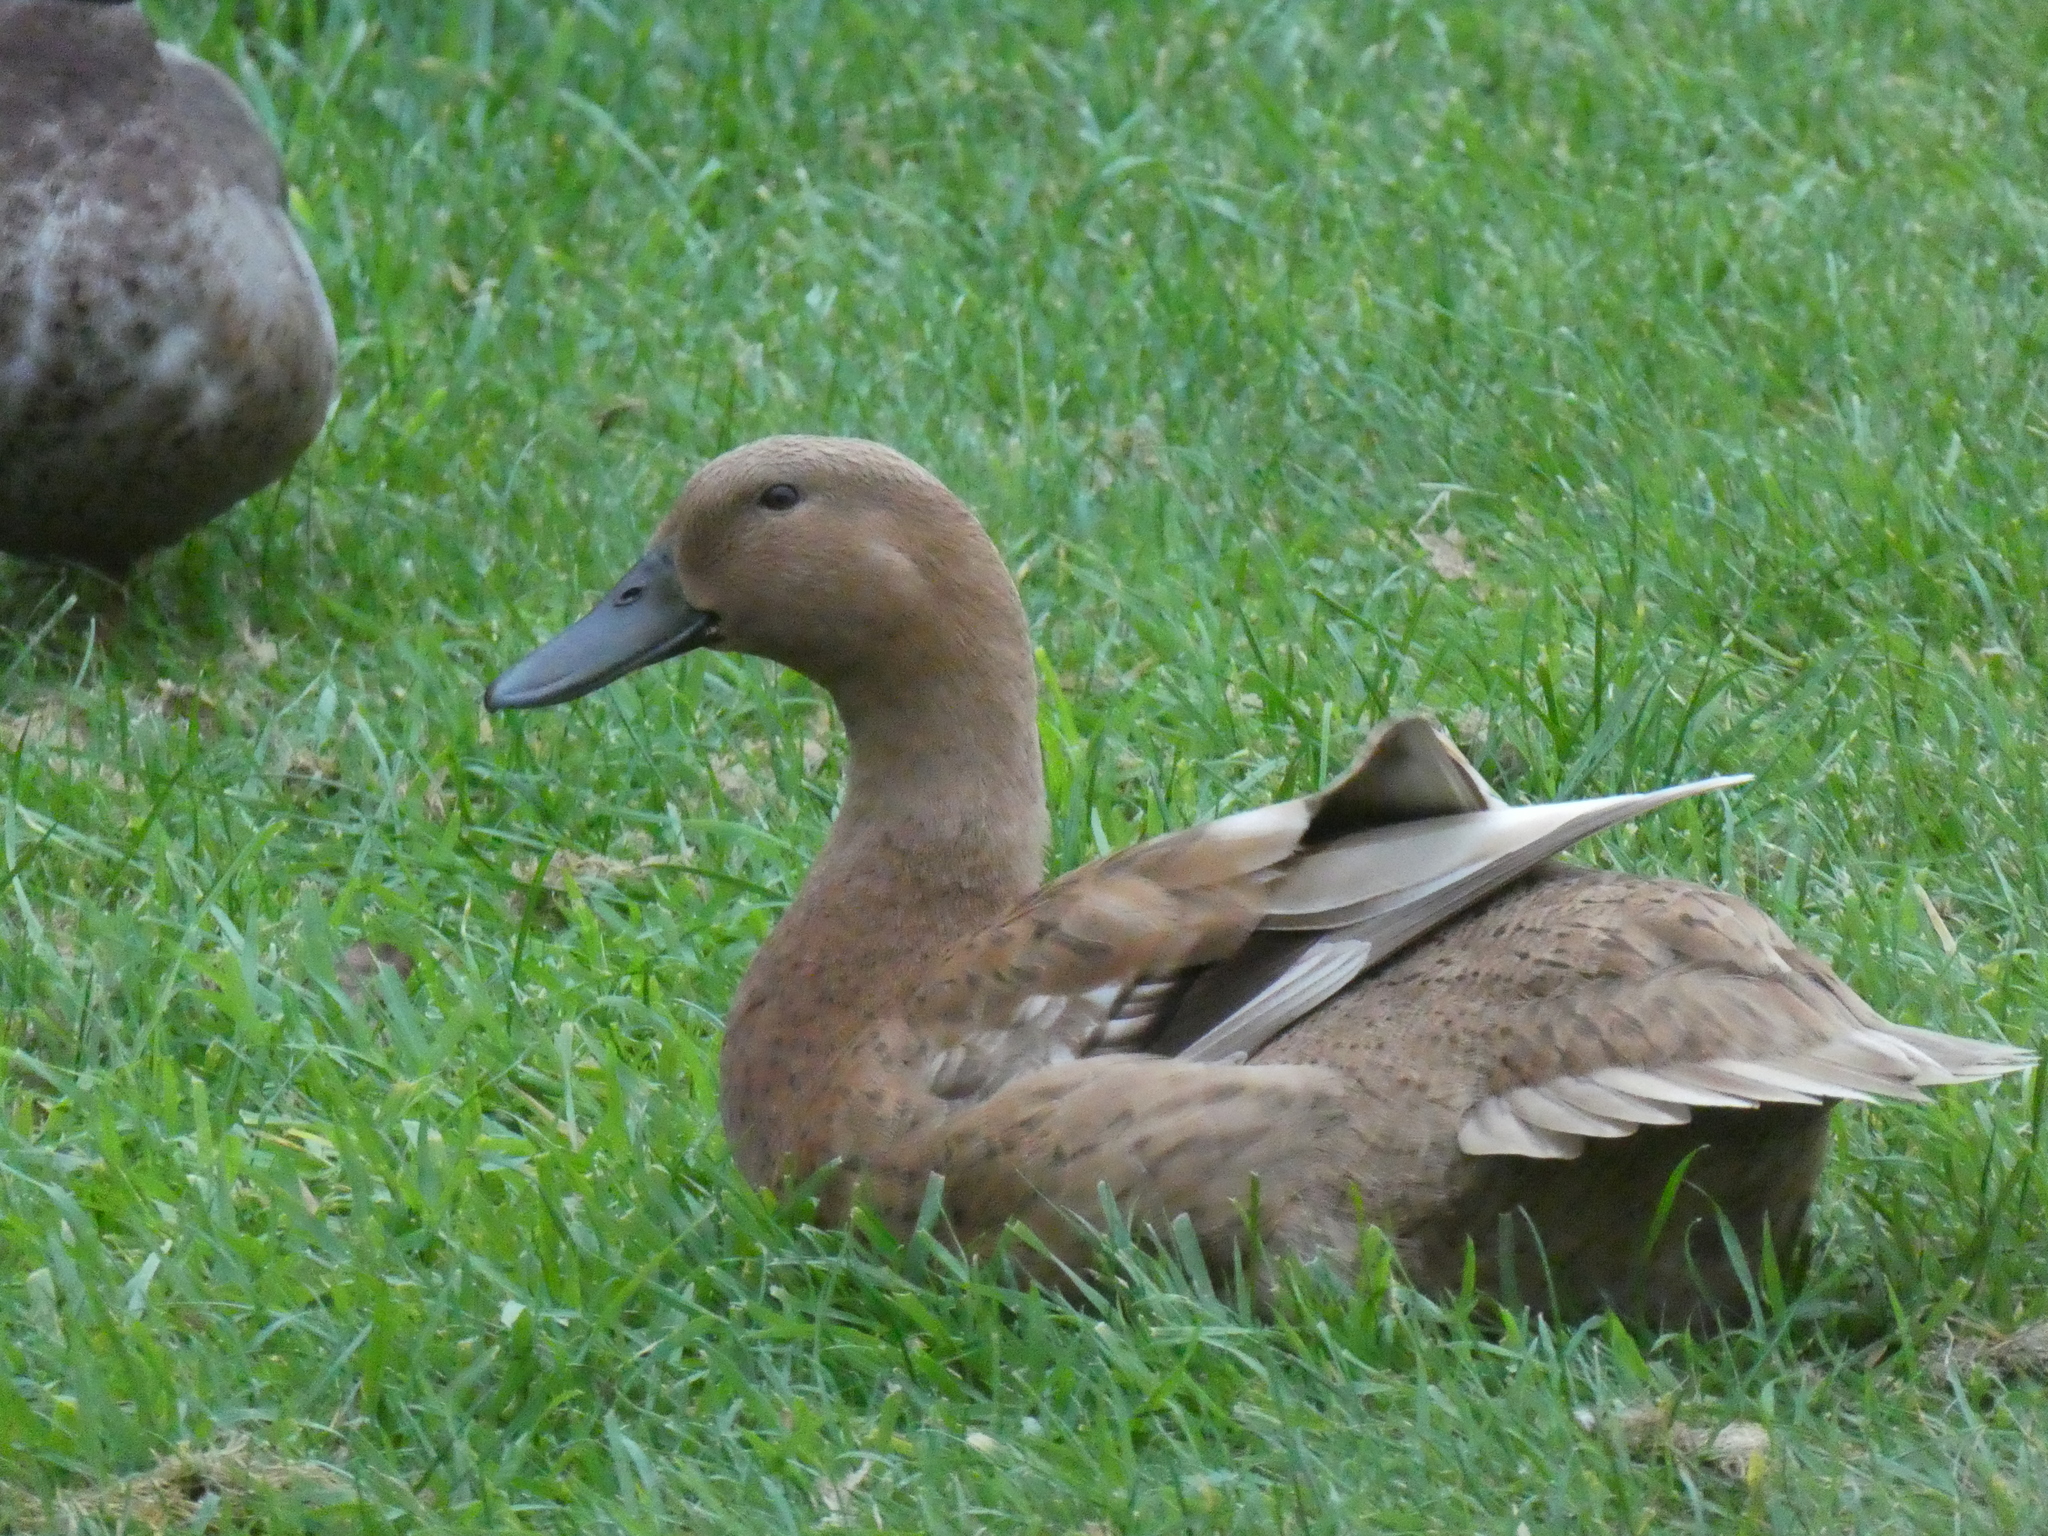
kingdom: Animalia
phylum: Chordata
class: Aves
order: Anseriformes
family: Anatidae
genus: Anas
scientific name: Anas platyrhynchos
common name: Mallard
